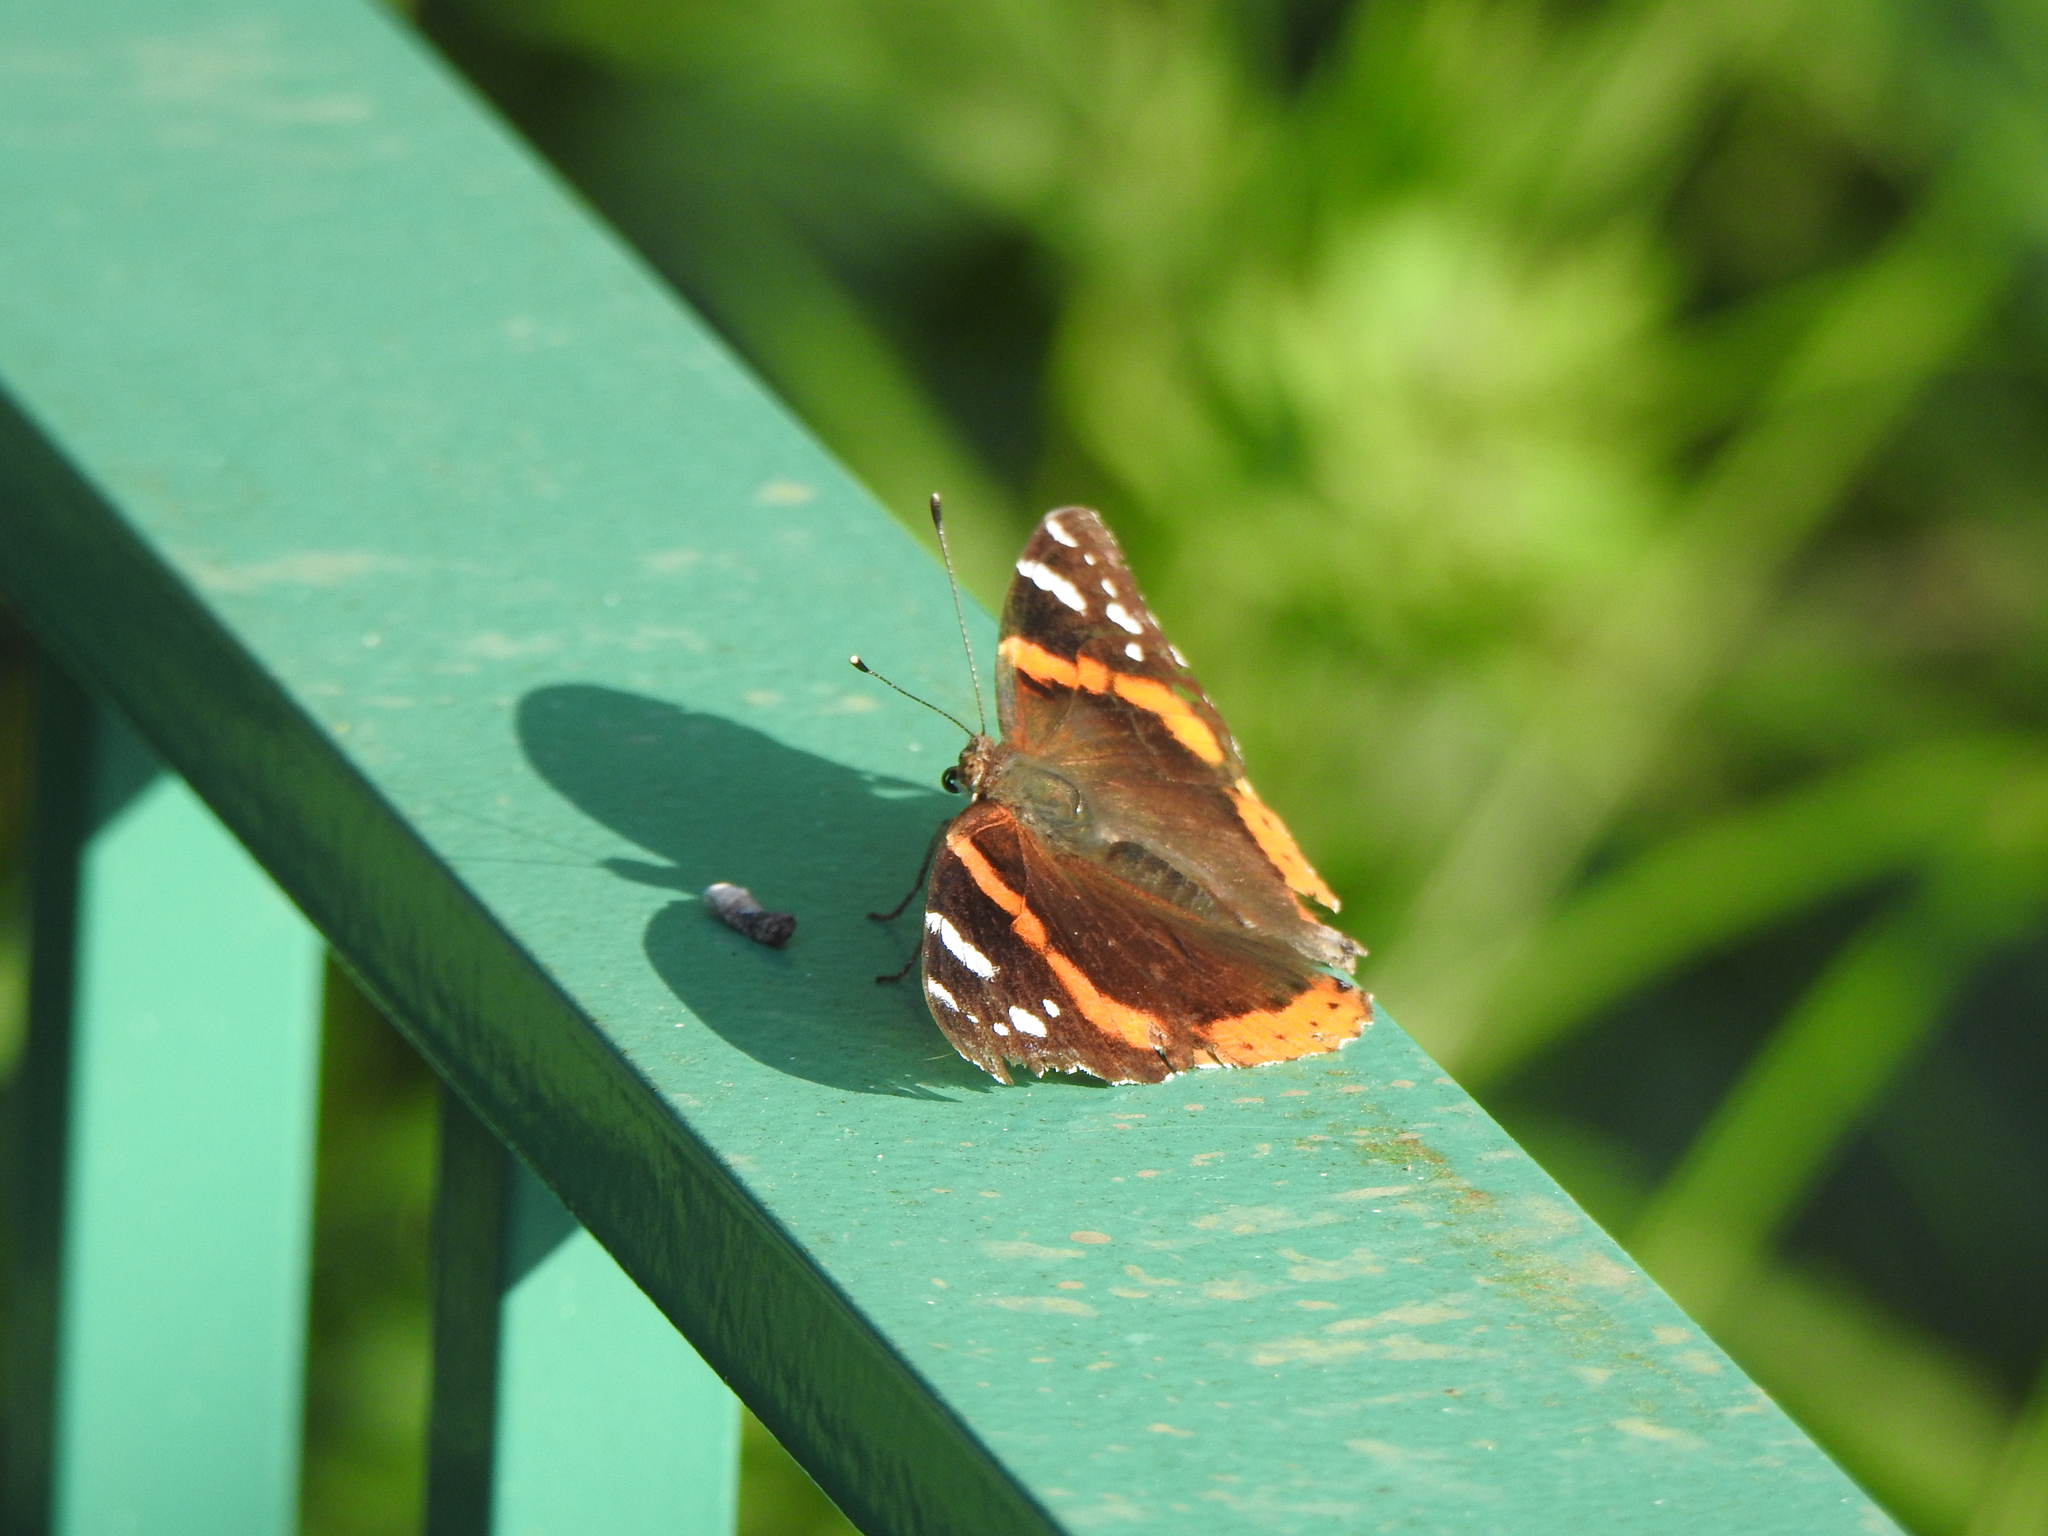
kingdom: Animalia
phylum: Arthropoda
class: Insecta
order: Lepidoptera
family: Nymphalidae
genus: Vanessa
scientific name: Vanessa atalanta
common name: Red admiral
